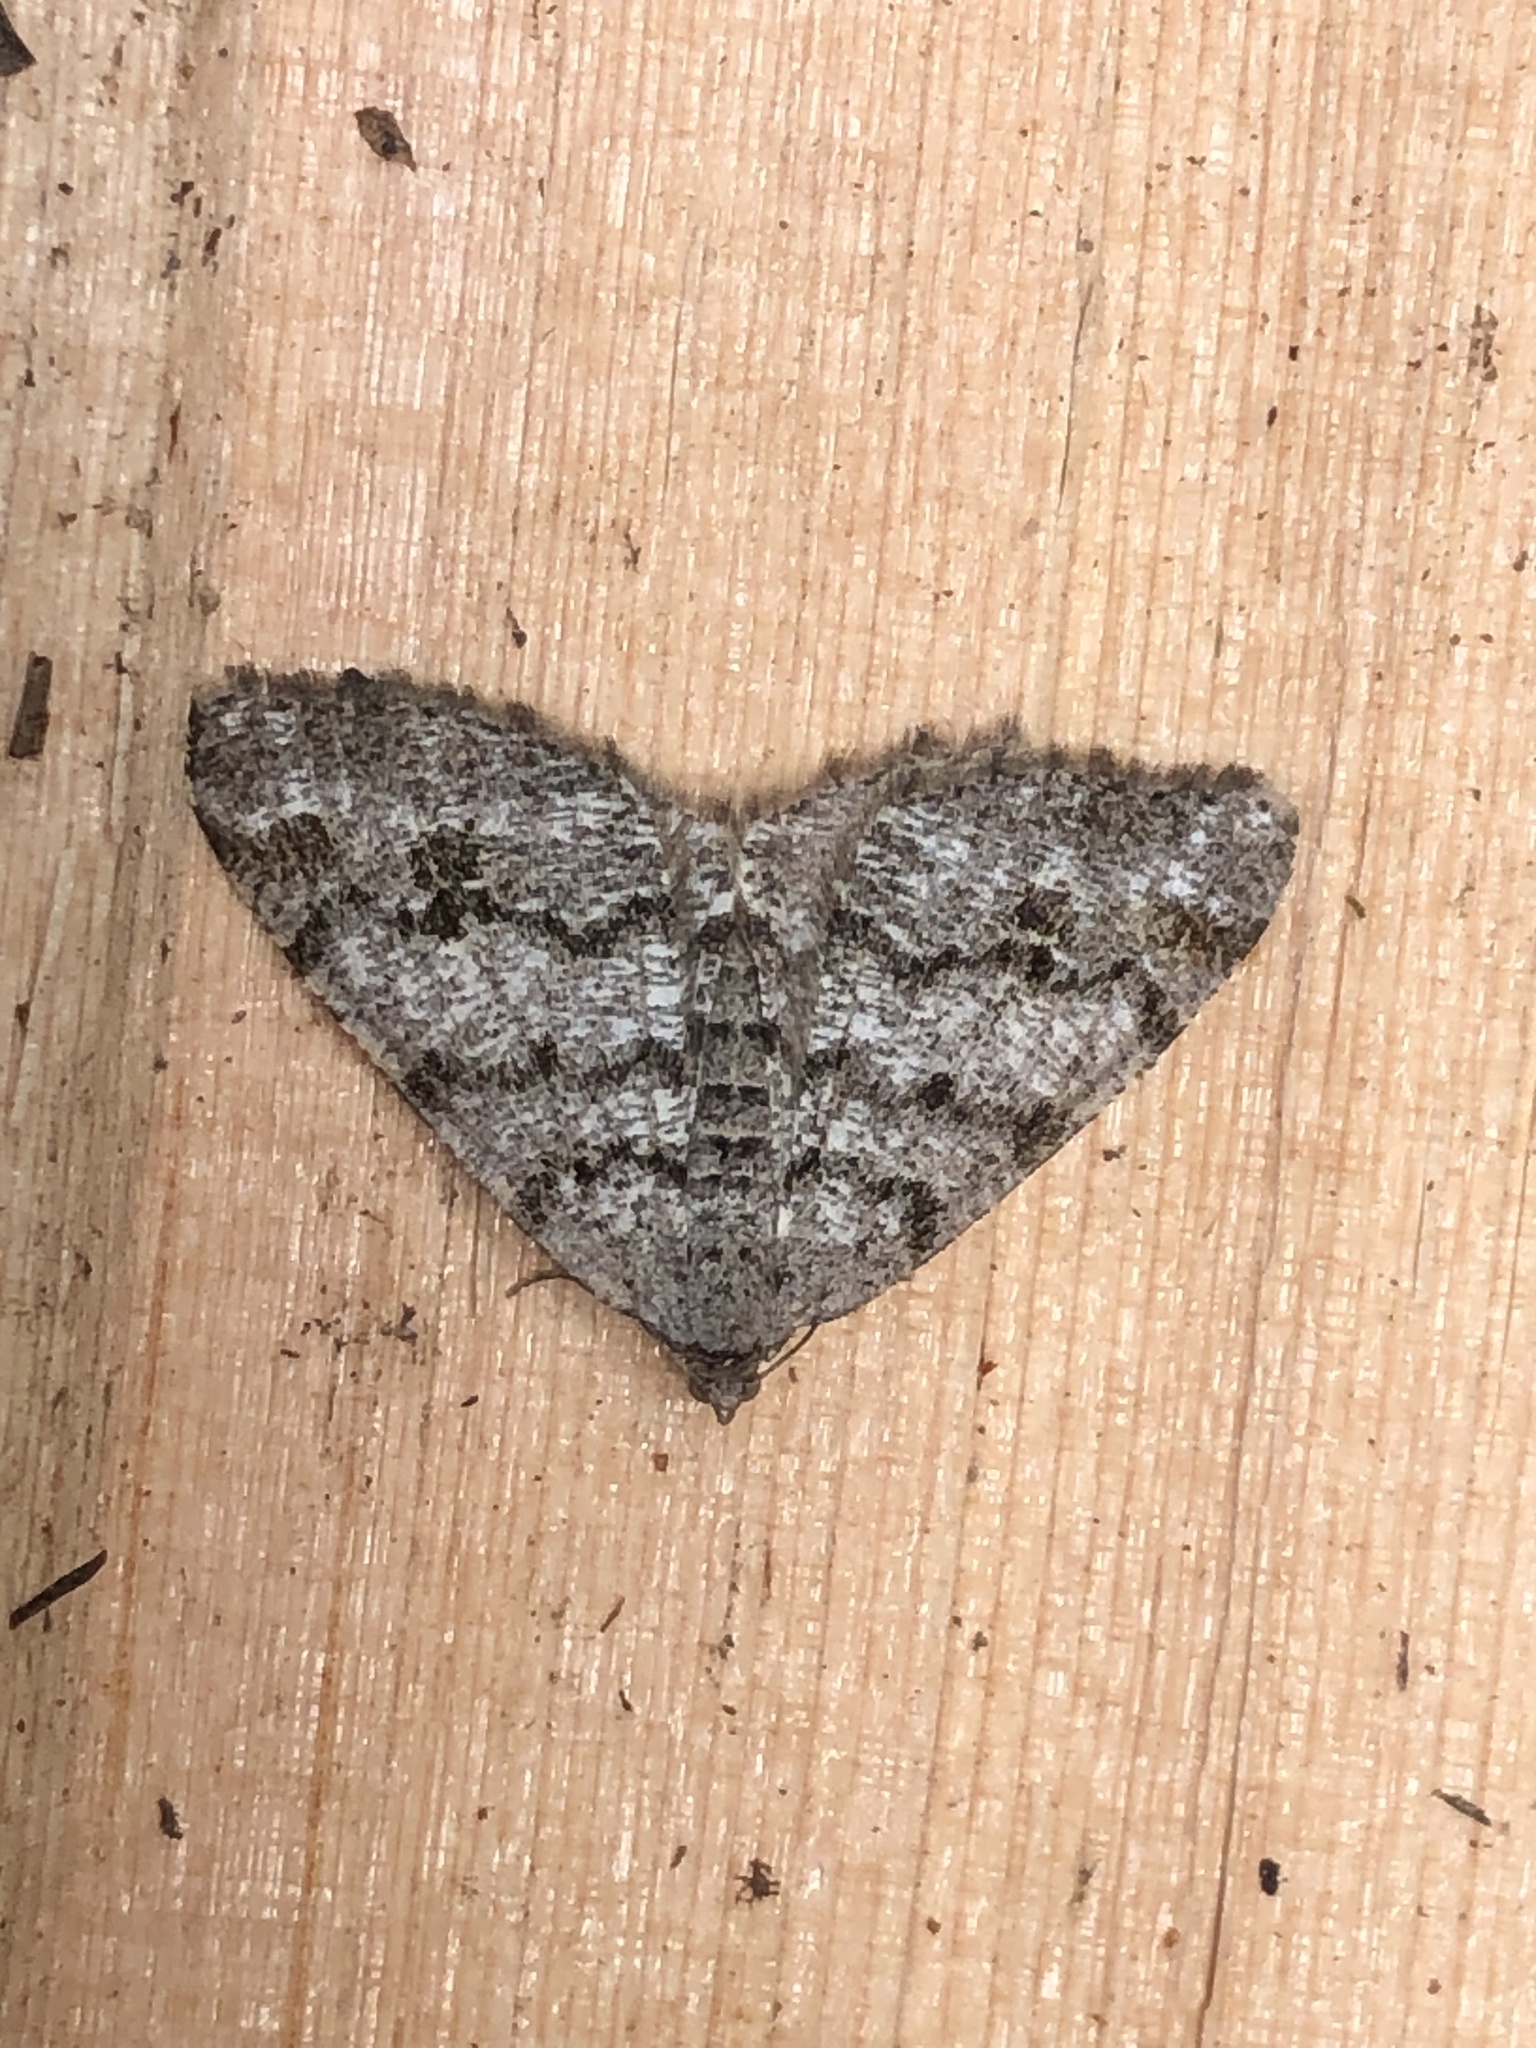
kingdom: Animalia
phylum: Arthropoda
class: Insecta
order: Lepidoptera
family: Geometridae
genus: Macaria
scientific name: Macaria signaria
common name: Dusky peacock
